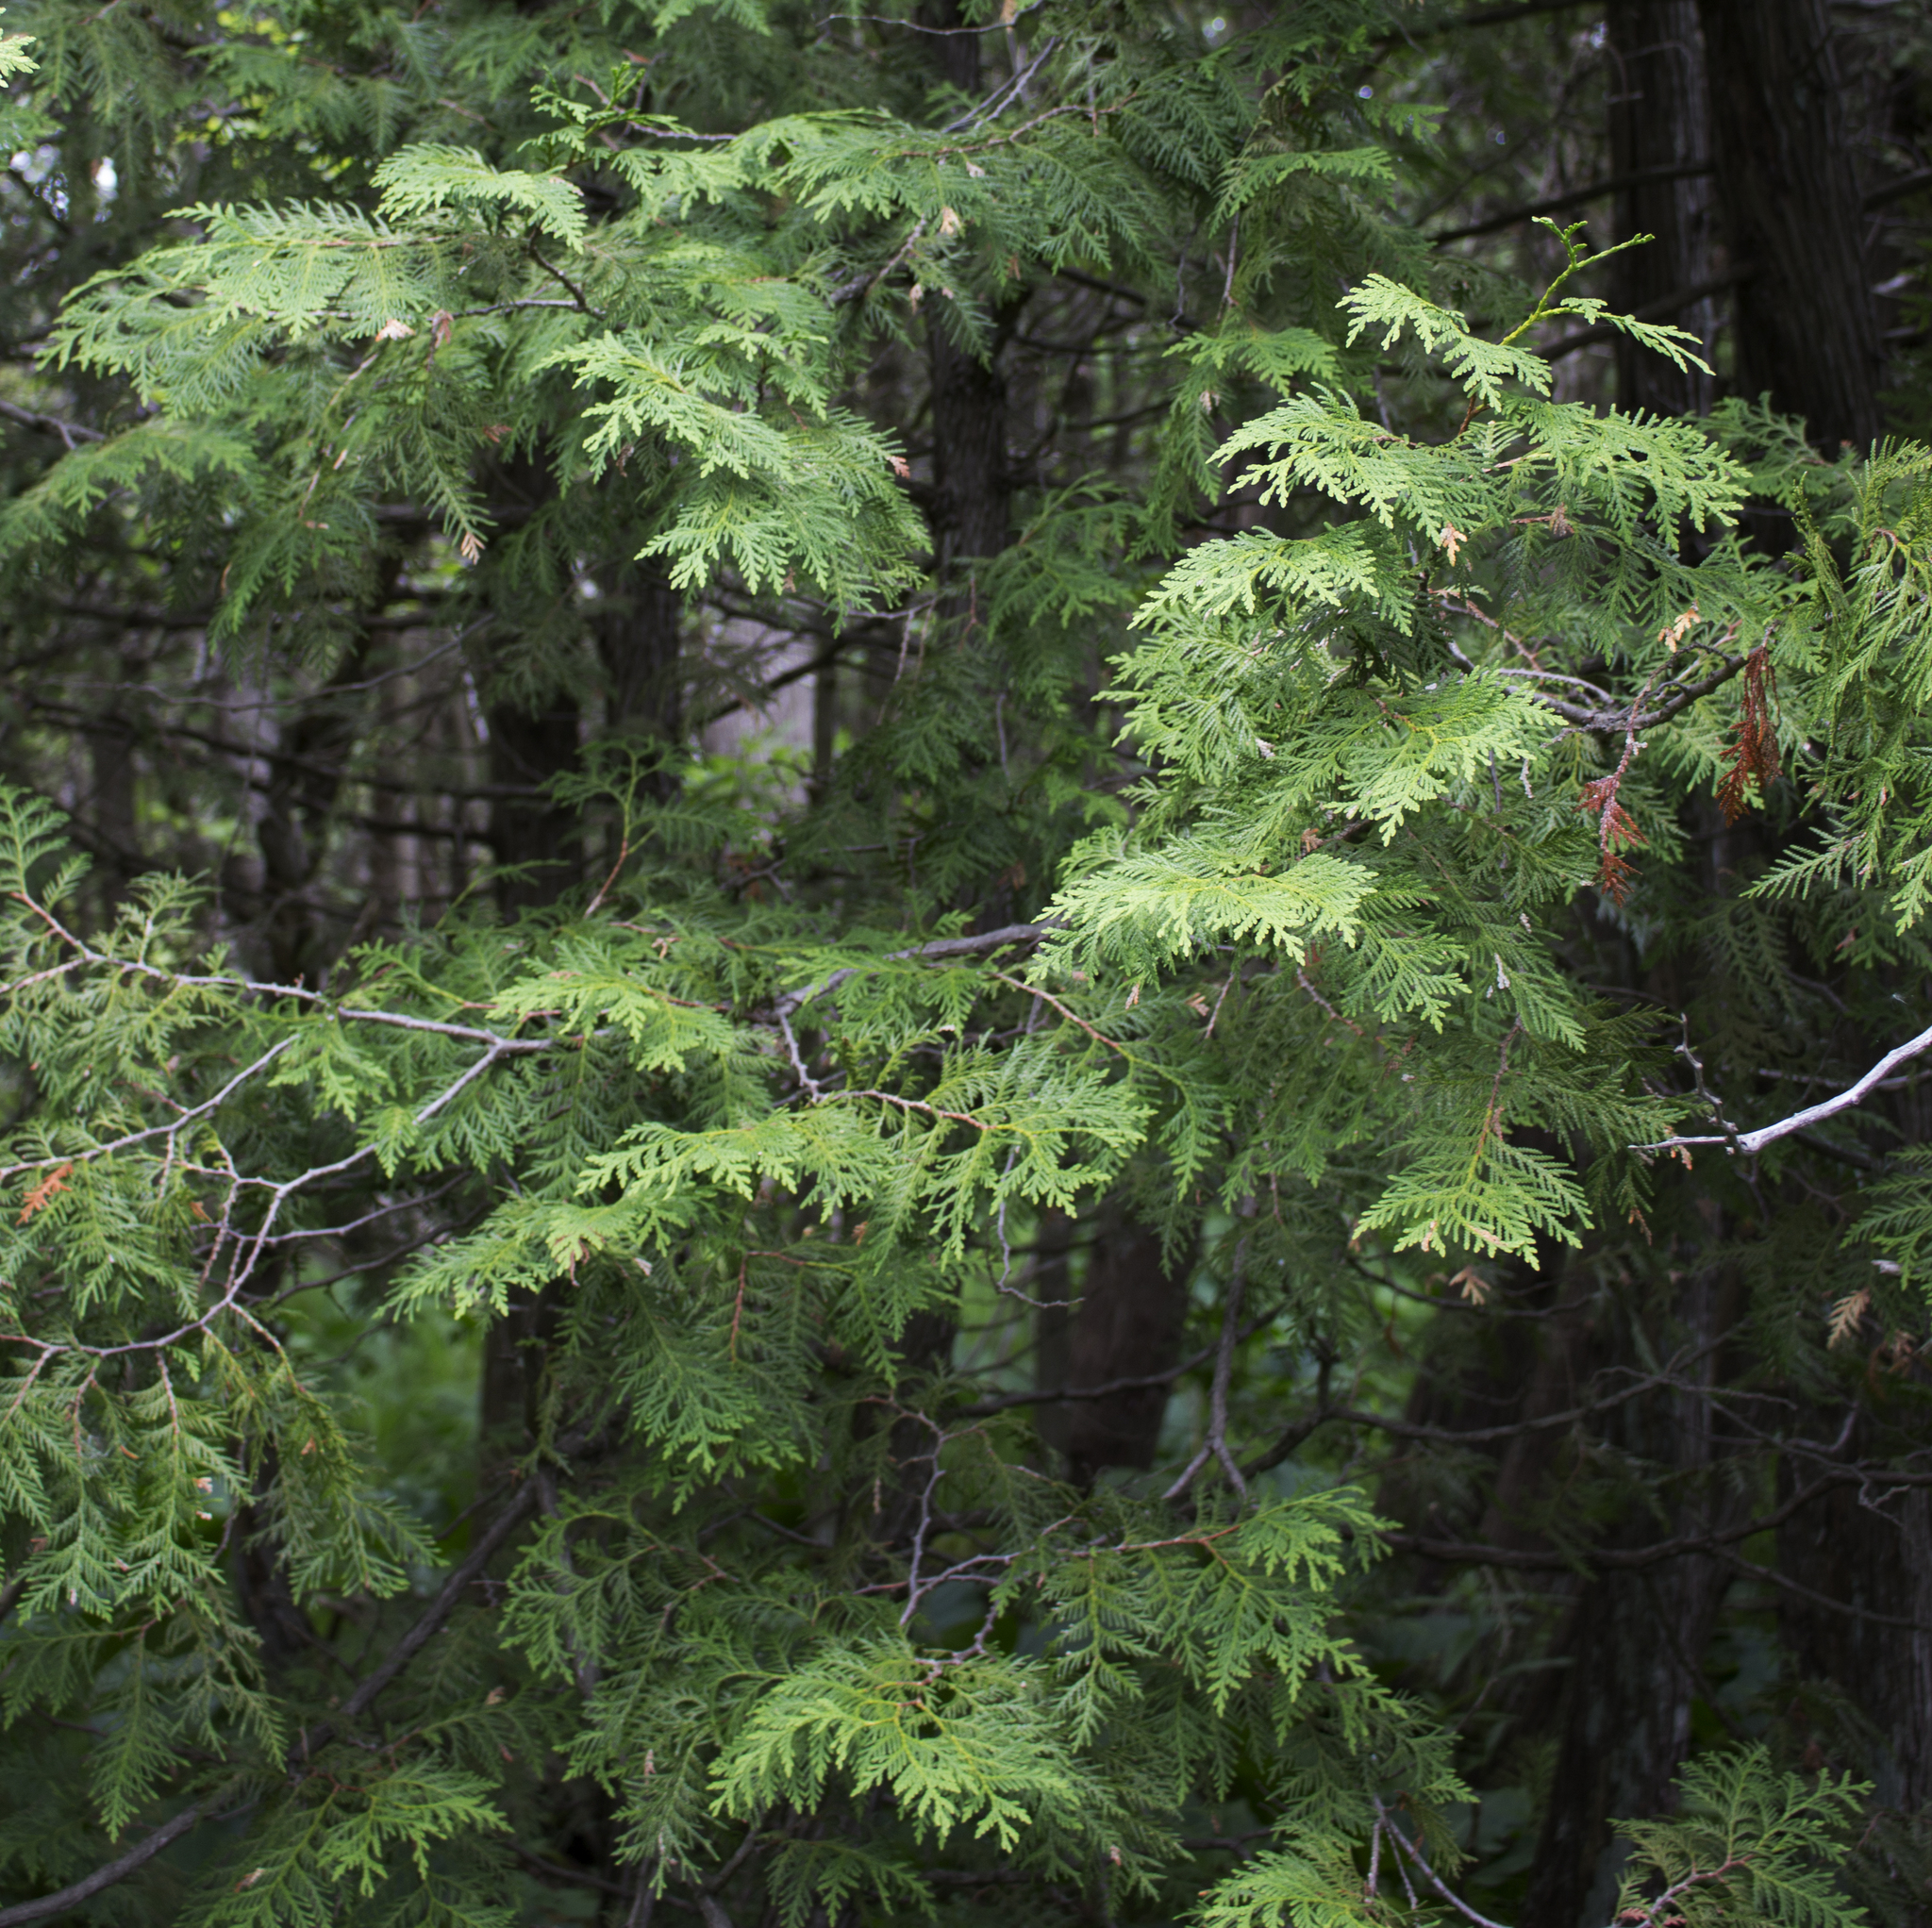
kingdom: Plantae
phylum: Tracheophyta
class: Pinopsida
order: Pinales
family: Cupressaceae
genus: Thuja
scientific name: Thuja occidentalis
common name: Northern white-cedar
